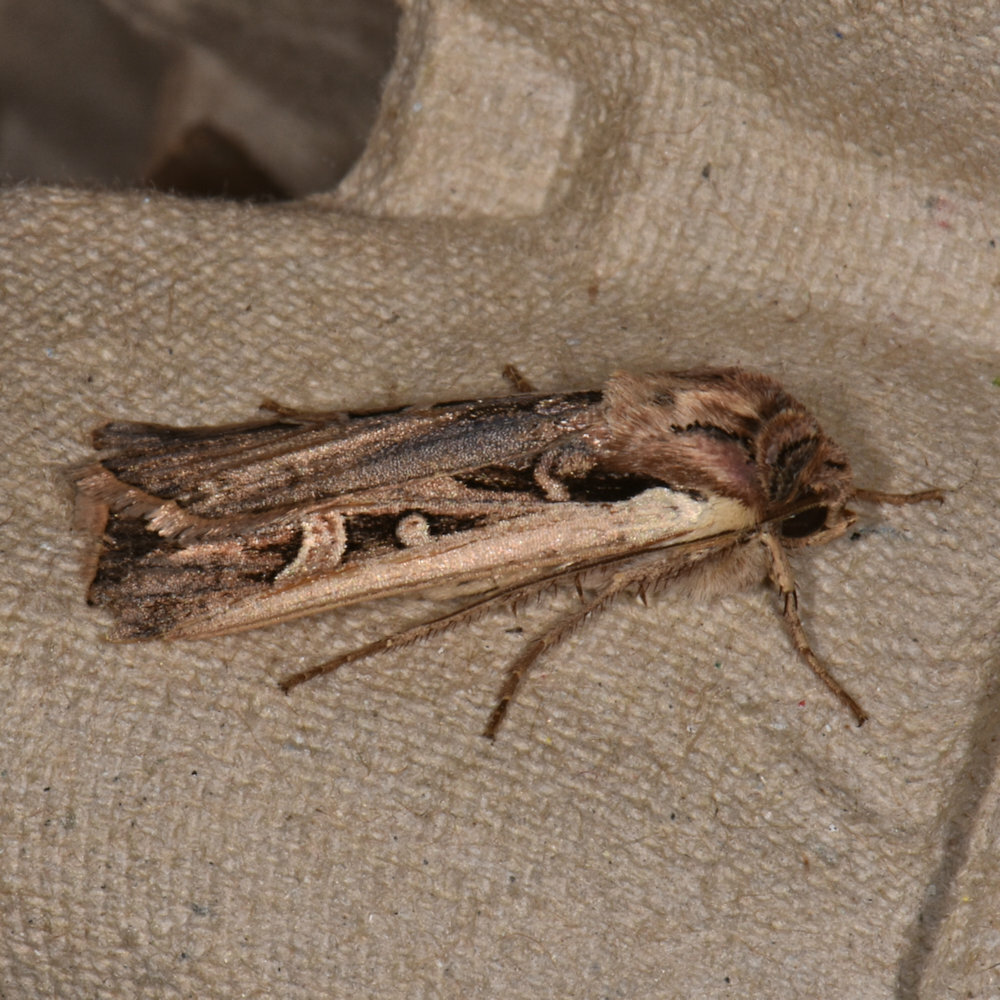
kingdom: Animalia
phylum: Arthropoda
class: Insecta
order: Lepidoptera
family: Noctuidae
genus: Striacosta
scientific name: Striacosta albicosta
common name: Western bean cutworm moth
